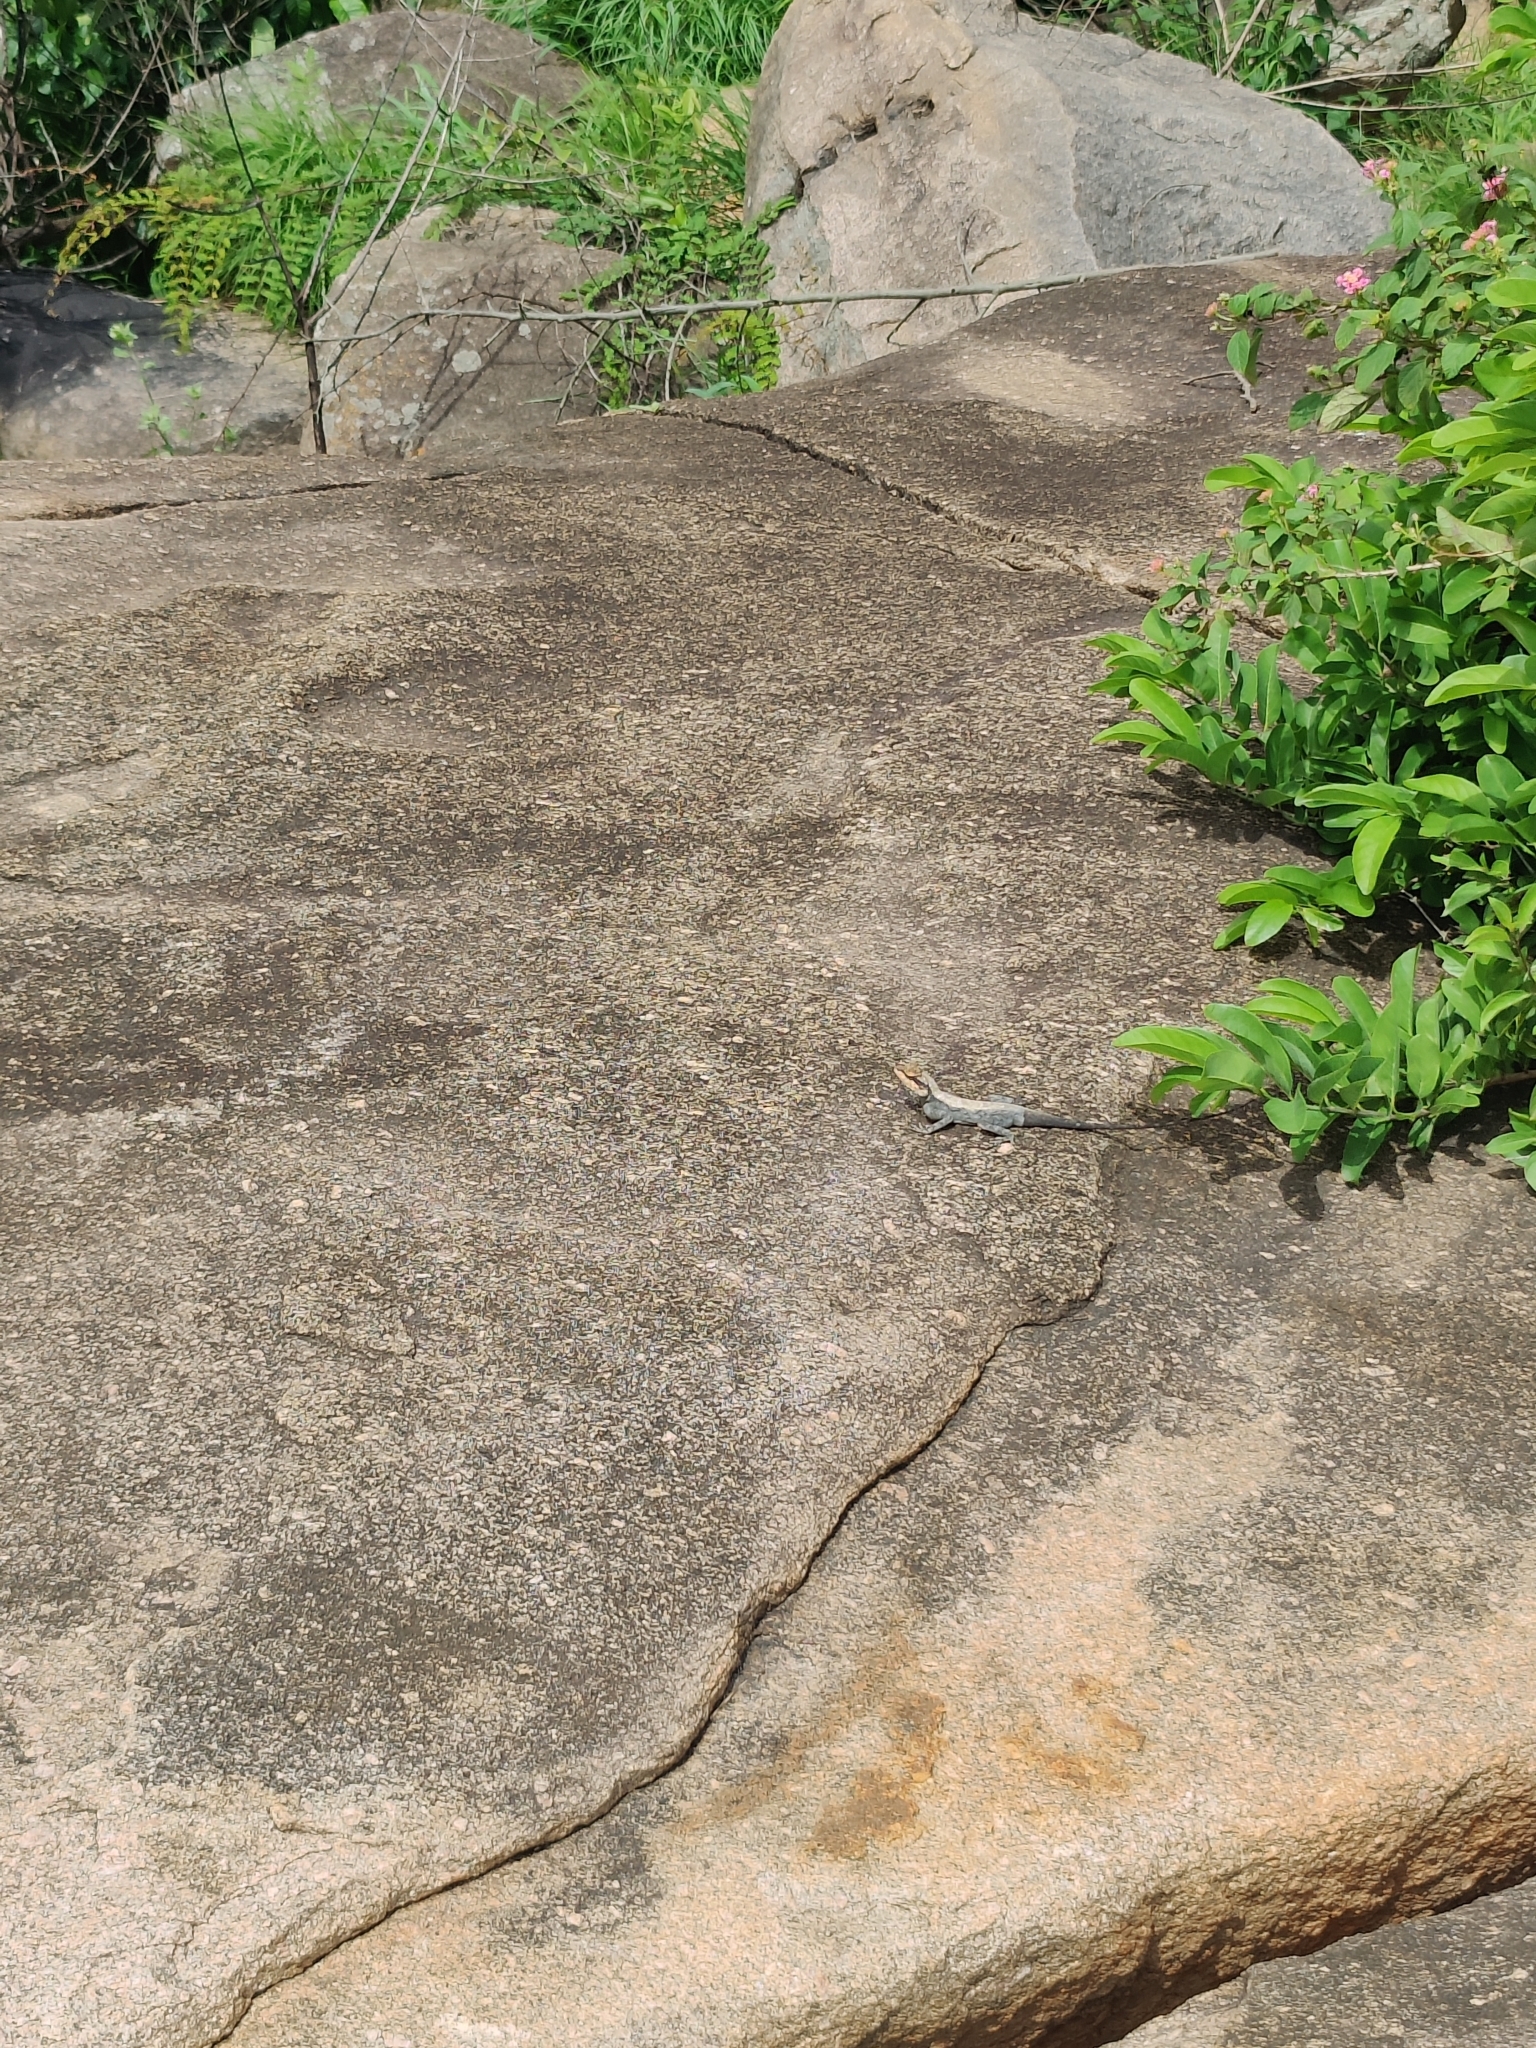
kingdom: Animalia
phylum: Chordata
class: Squamata
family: Agamidae
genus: Psammophilus
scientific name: Psammophilus dorsalis
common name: South indian rock agama
